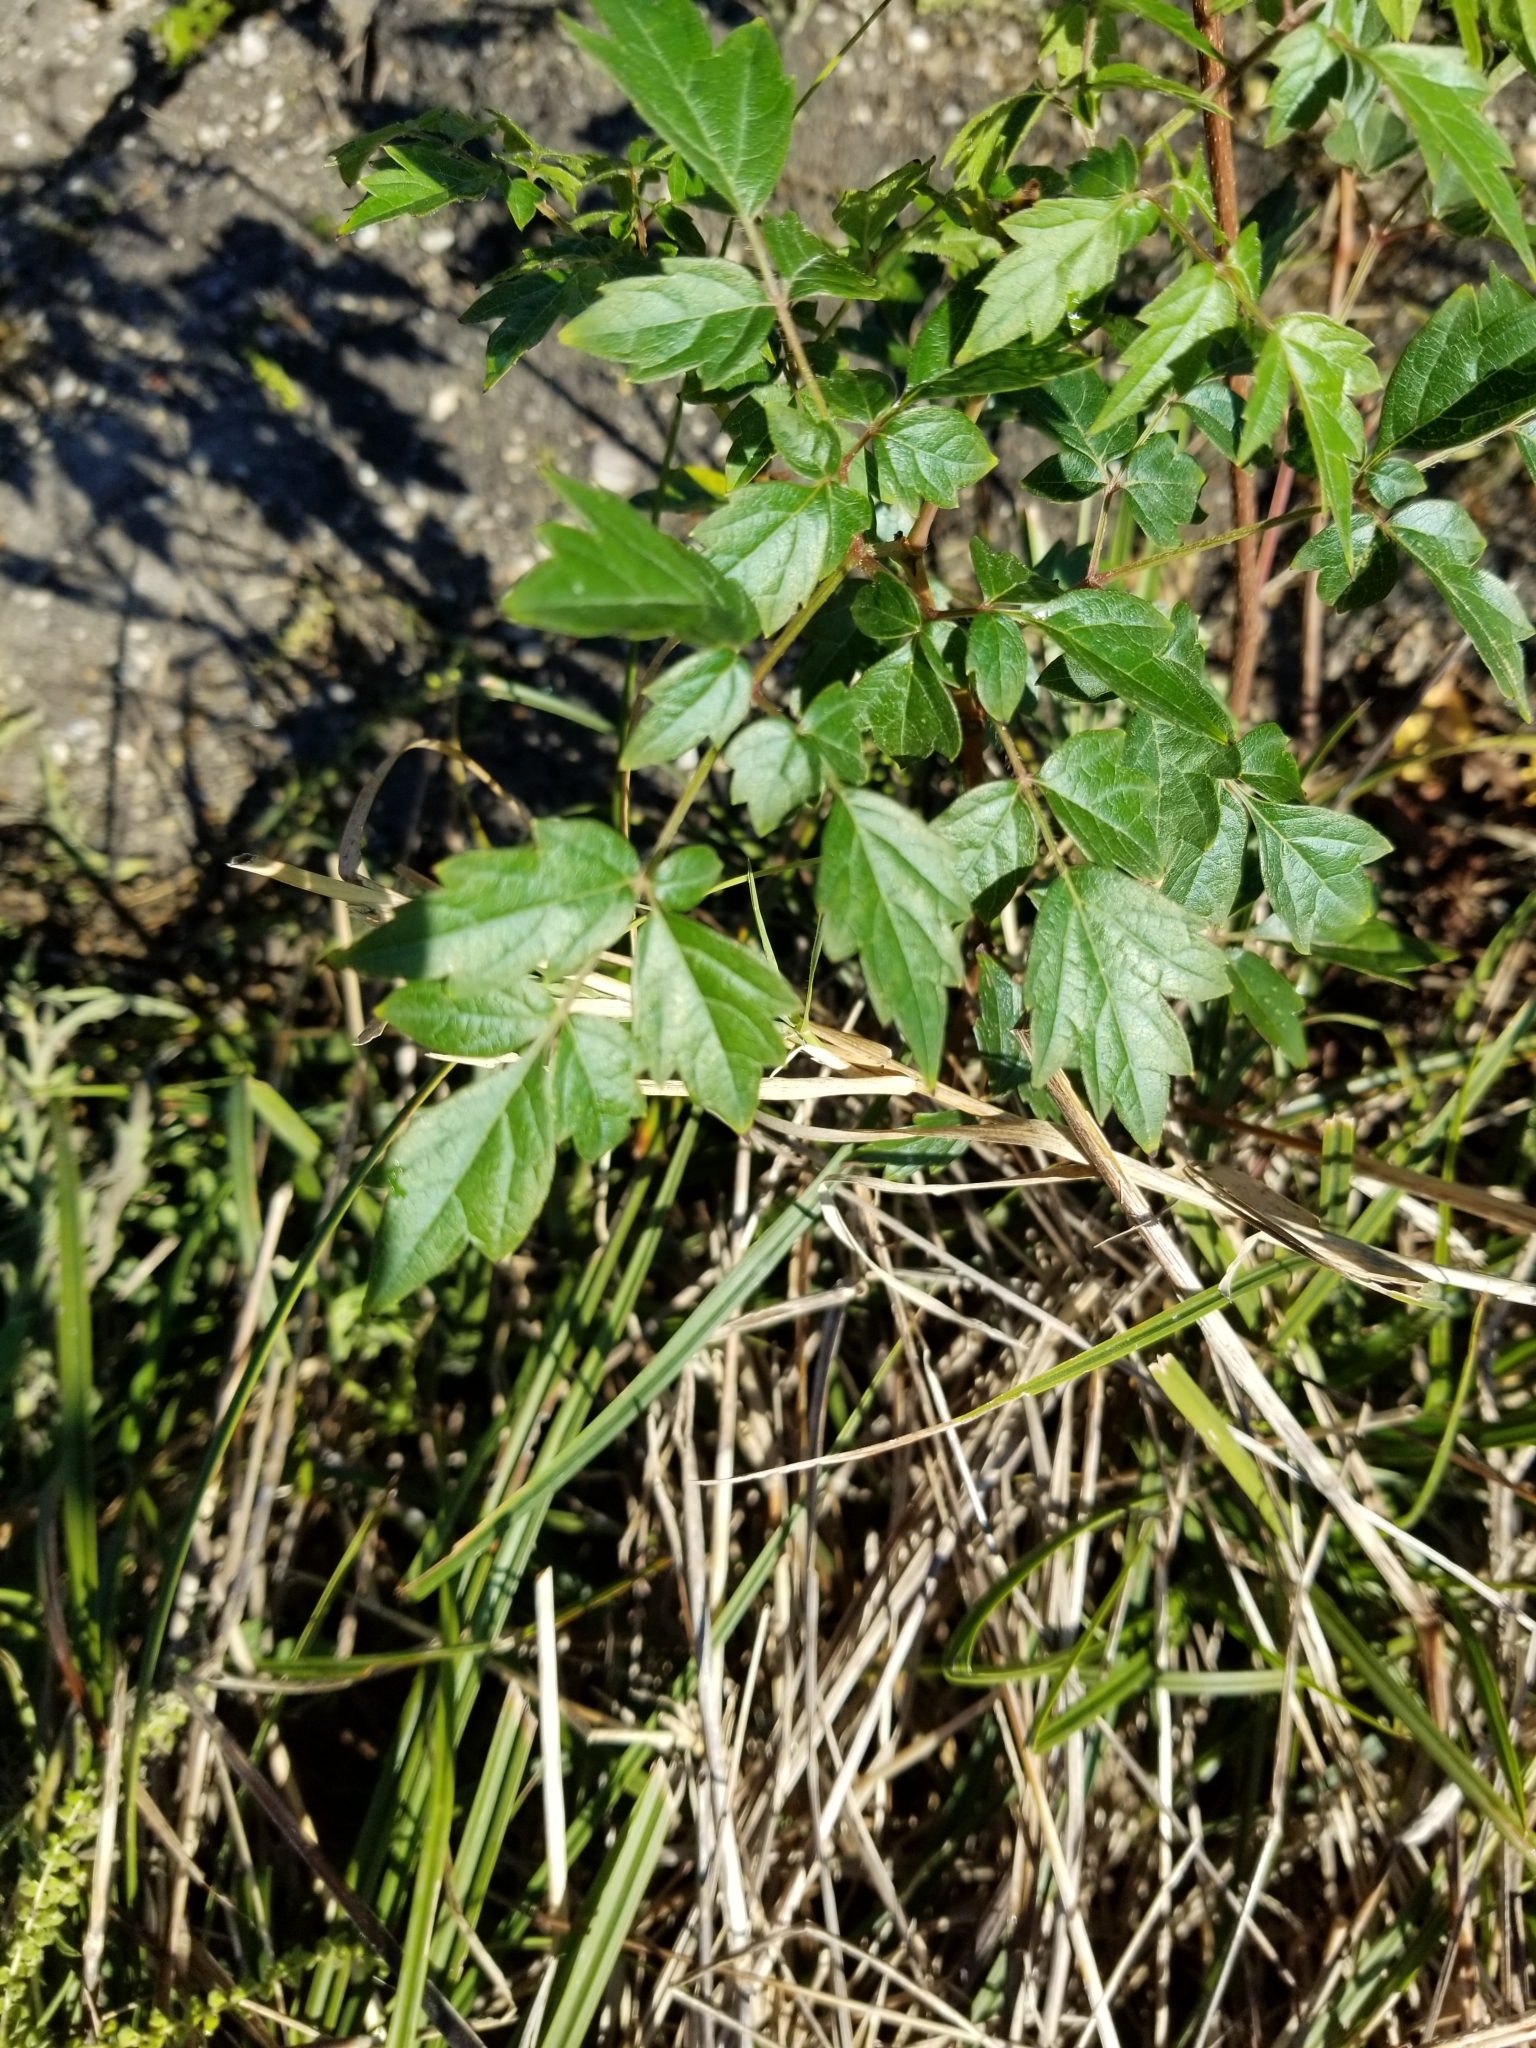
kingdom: Plantae
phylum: Tracheophyta
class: Magnoliopsida
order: Vitales
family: Vitaceae
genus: Nekemias
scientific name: Nekemias arborea
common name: Peppervine
